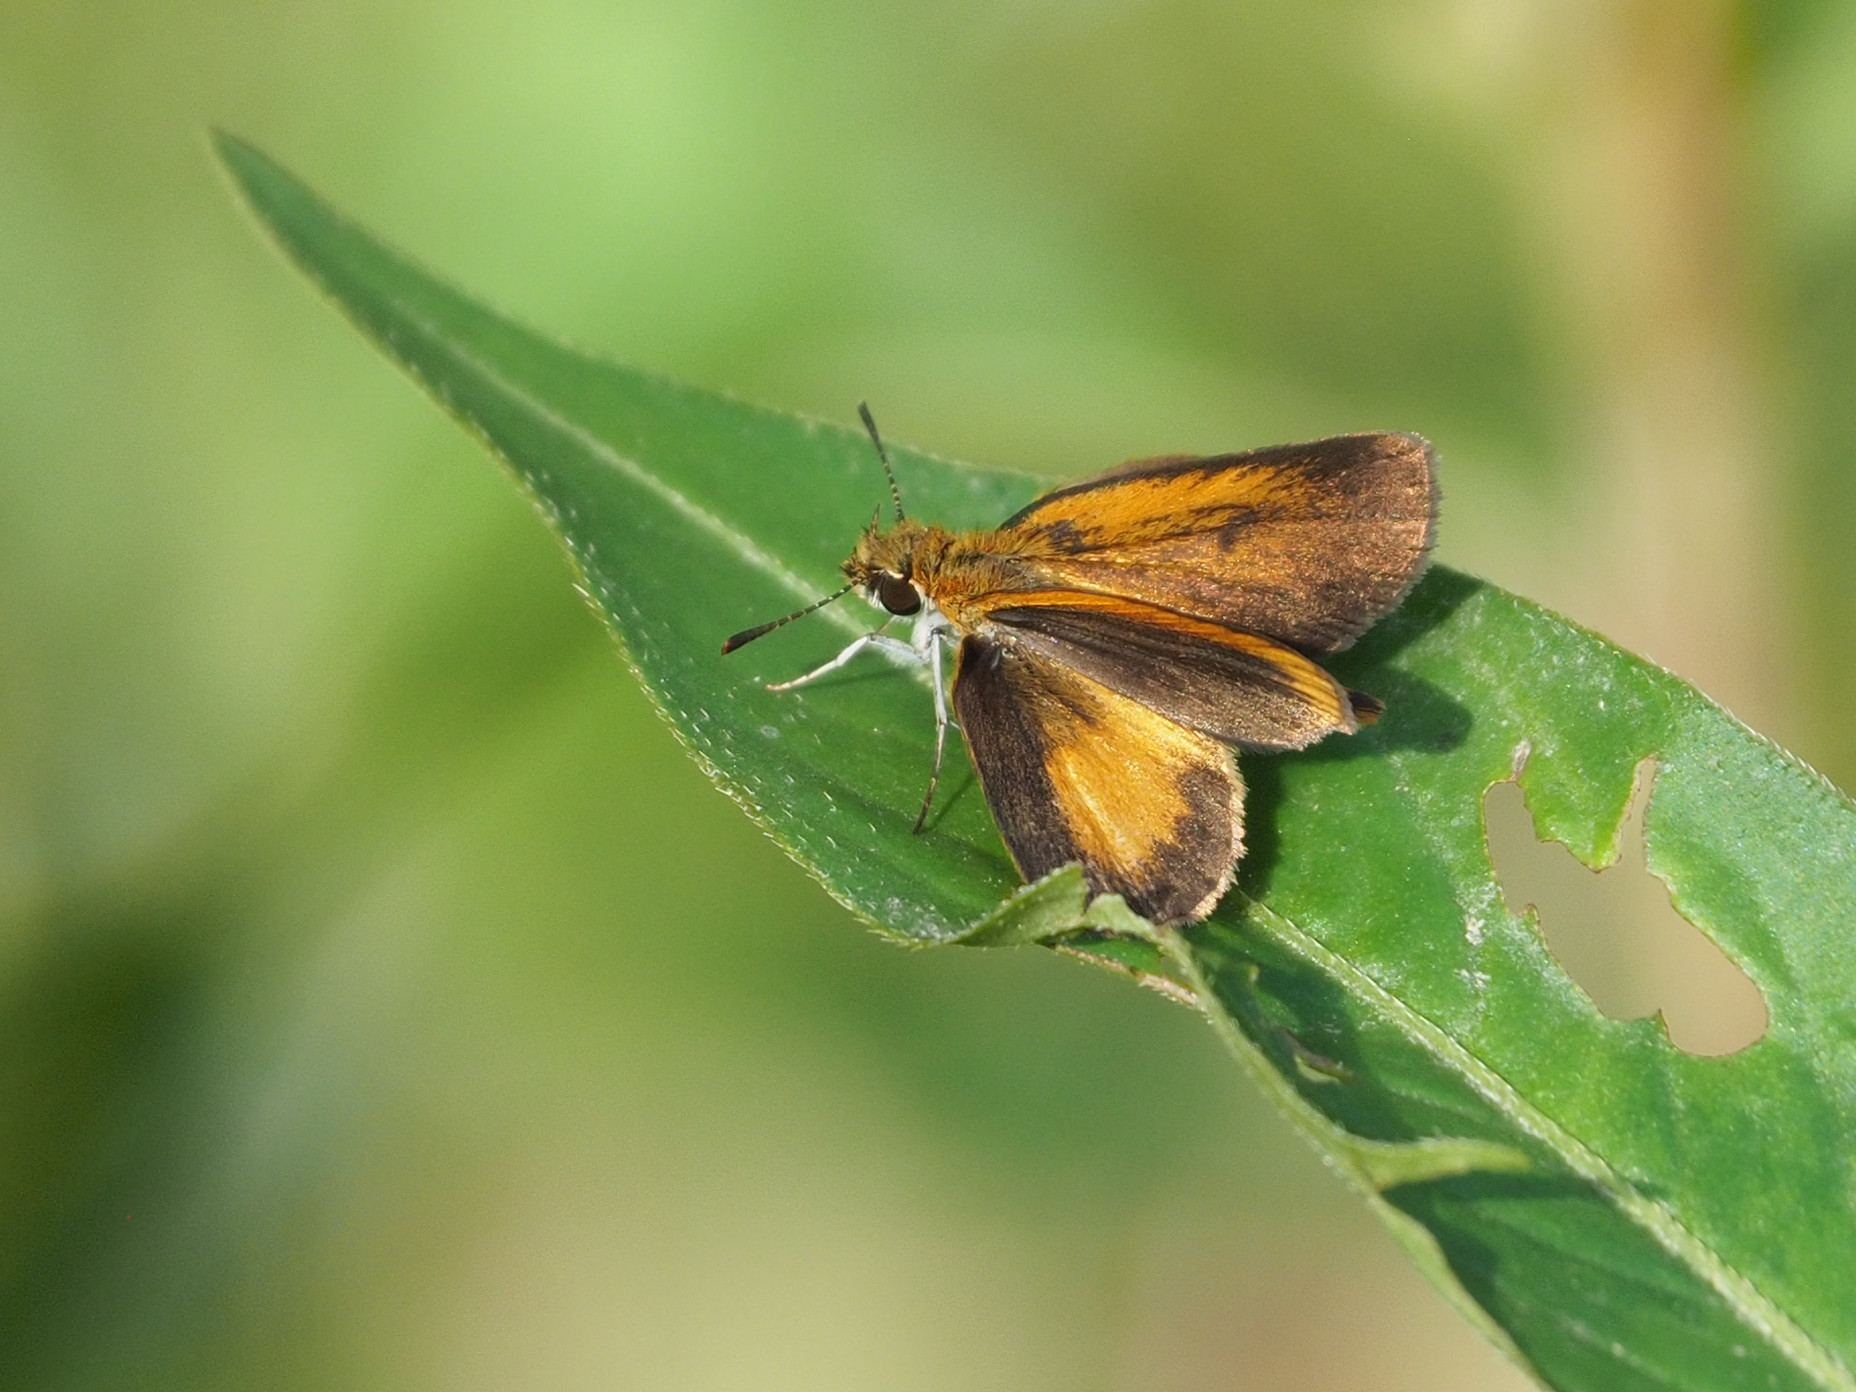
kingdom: Animalia
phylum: Arthropoda
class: Insecta
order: Lepidoptera
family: Hesperiidae
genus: Ancyloxypha
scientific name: Ancyloxypha numitor
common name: Least skipper
